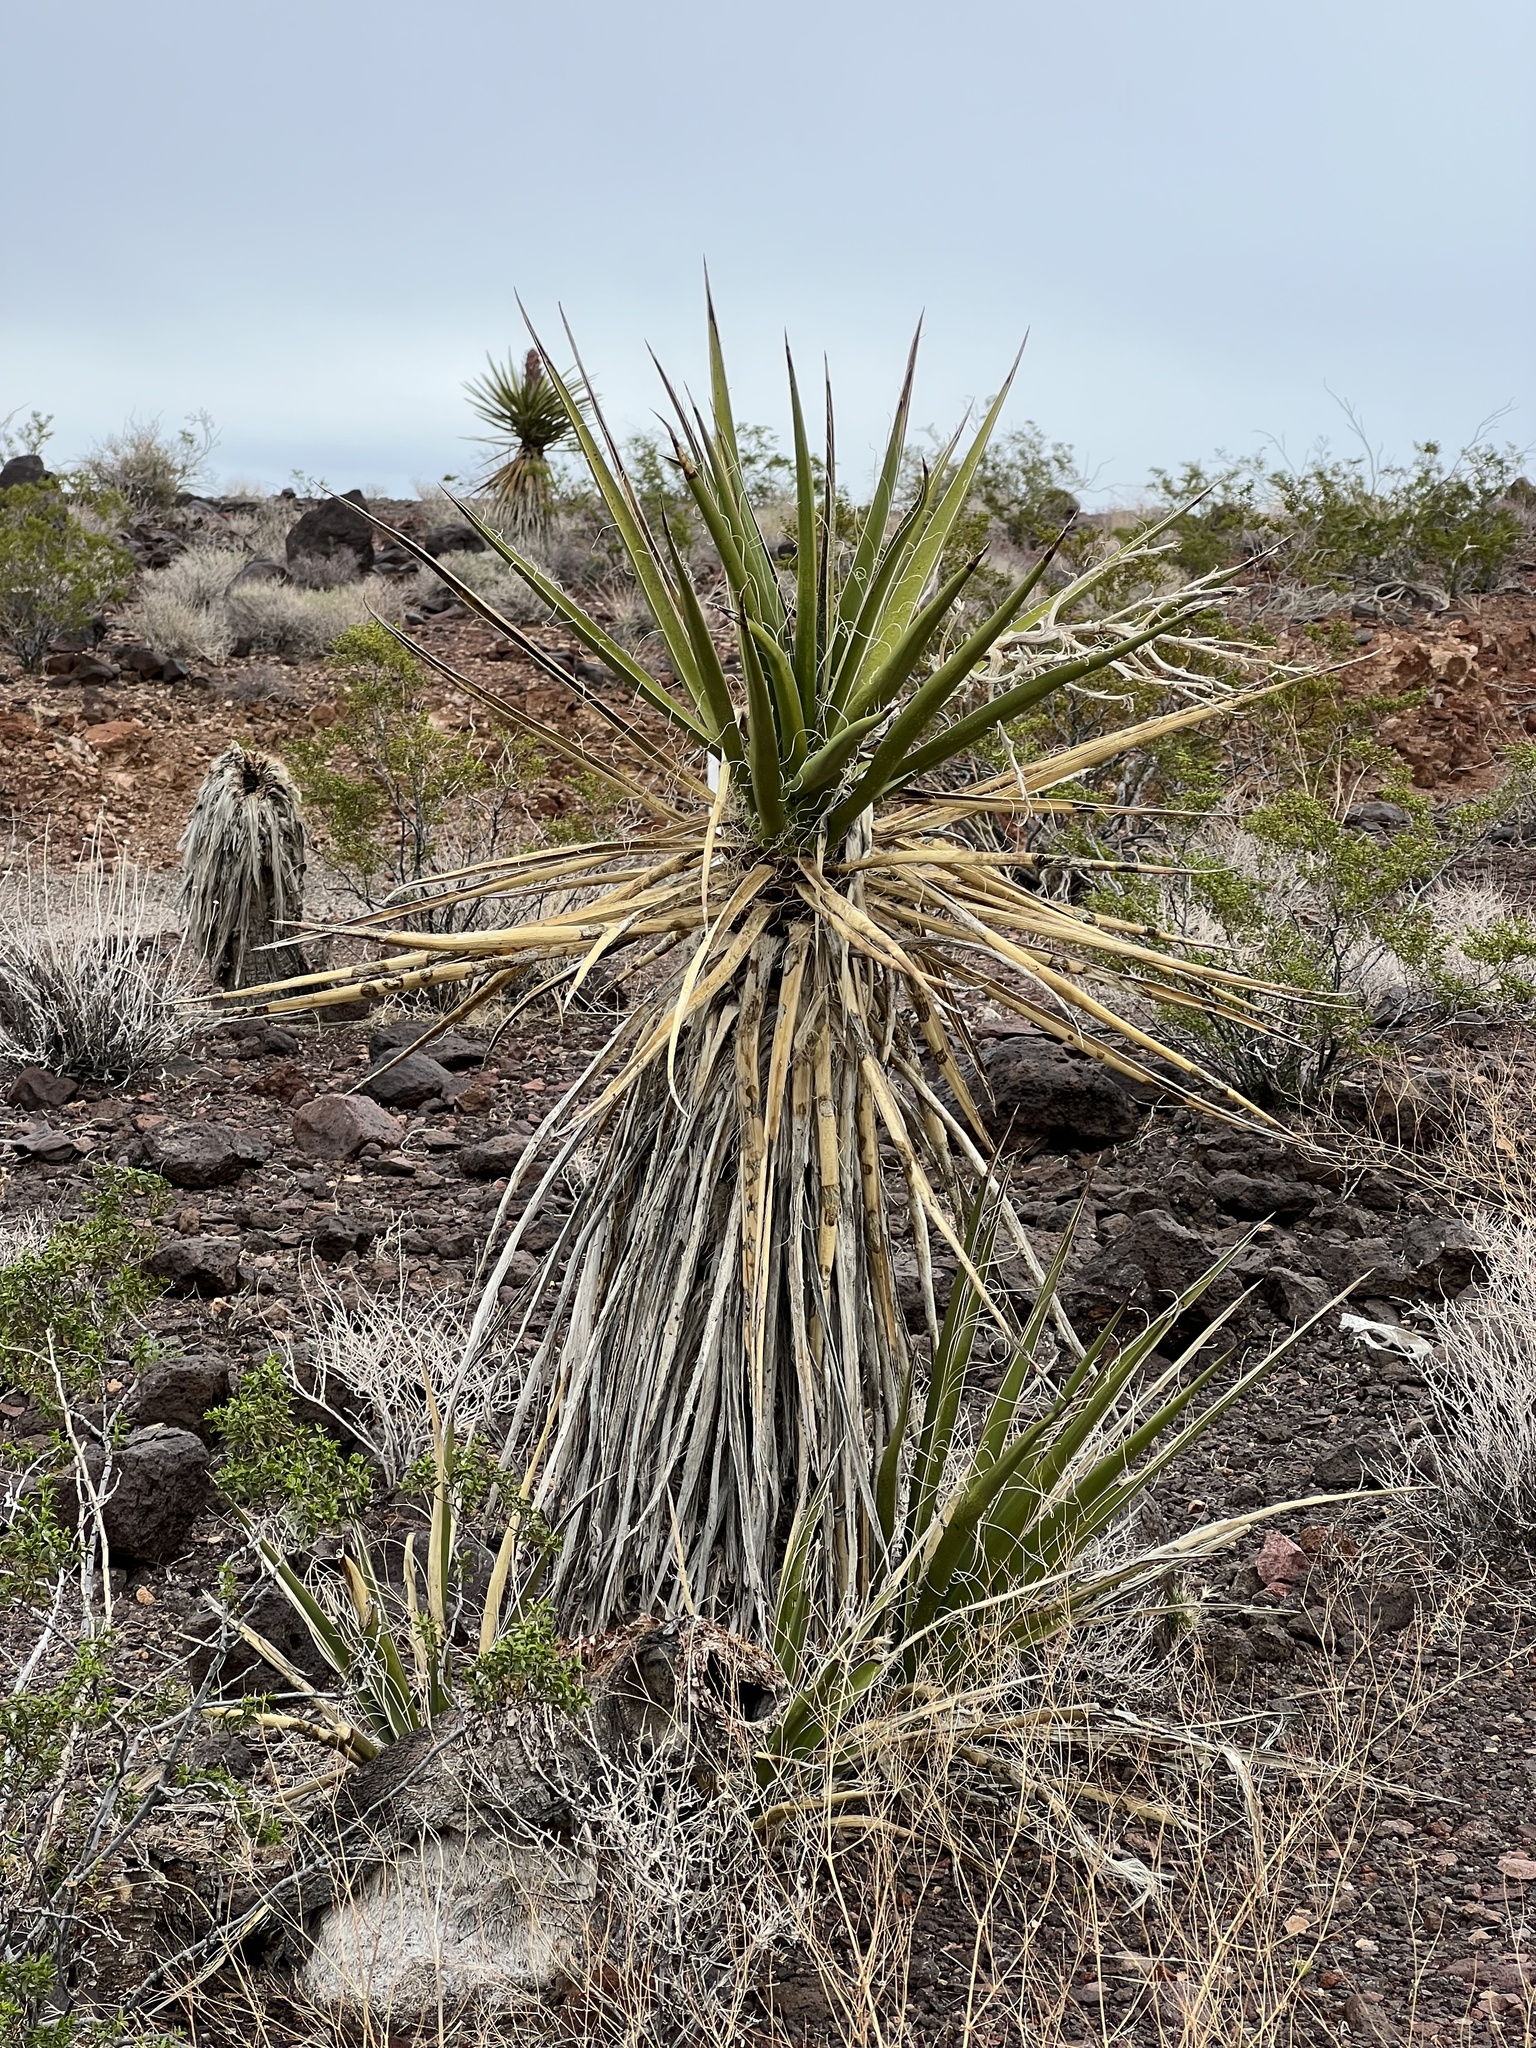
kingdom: Plantae
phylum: Tracheophyta
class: Liliopsida
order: Asparagales
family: Asparagaceae
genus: Yucca
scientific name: Yucca schidigera
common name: Mojave yucca
